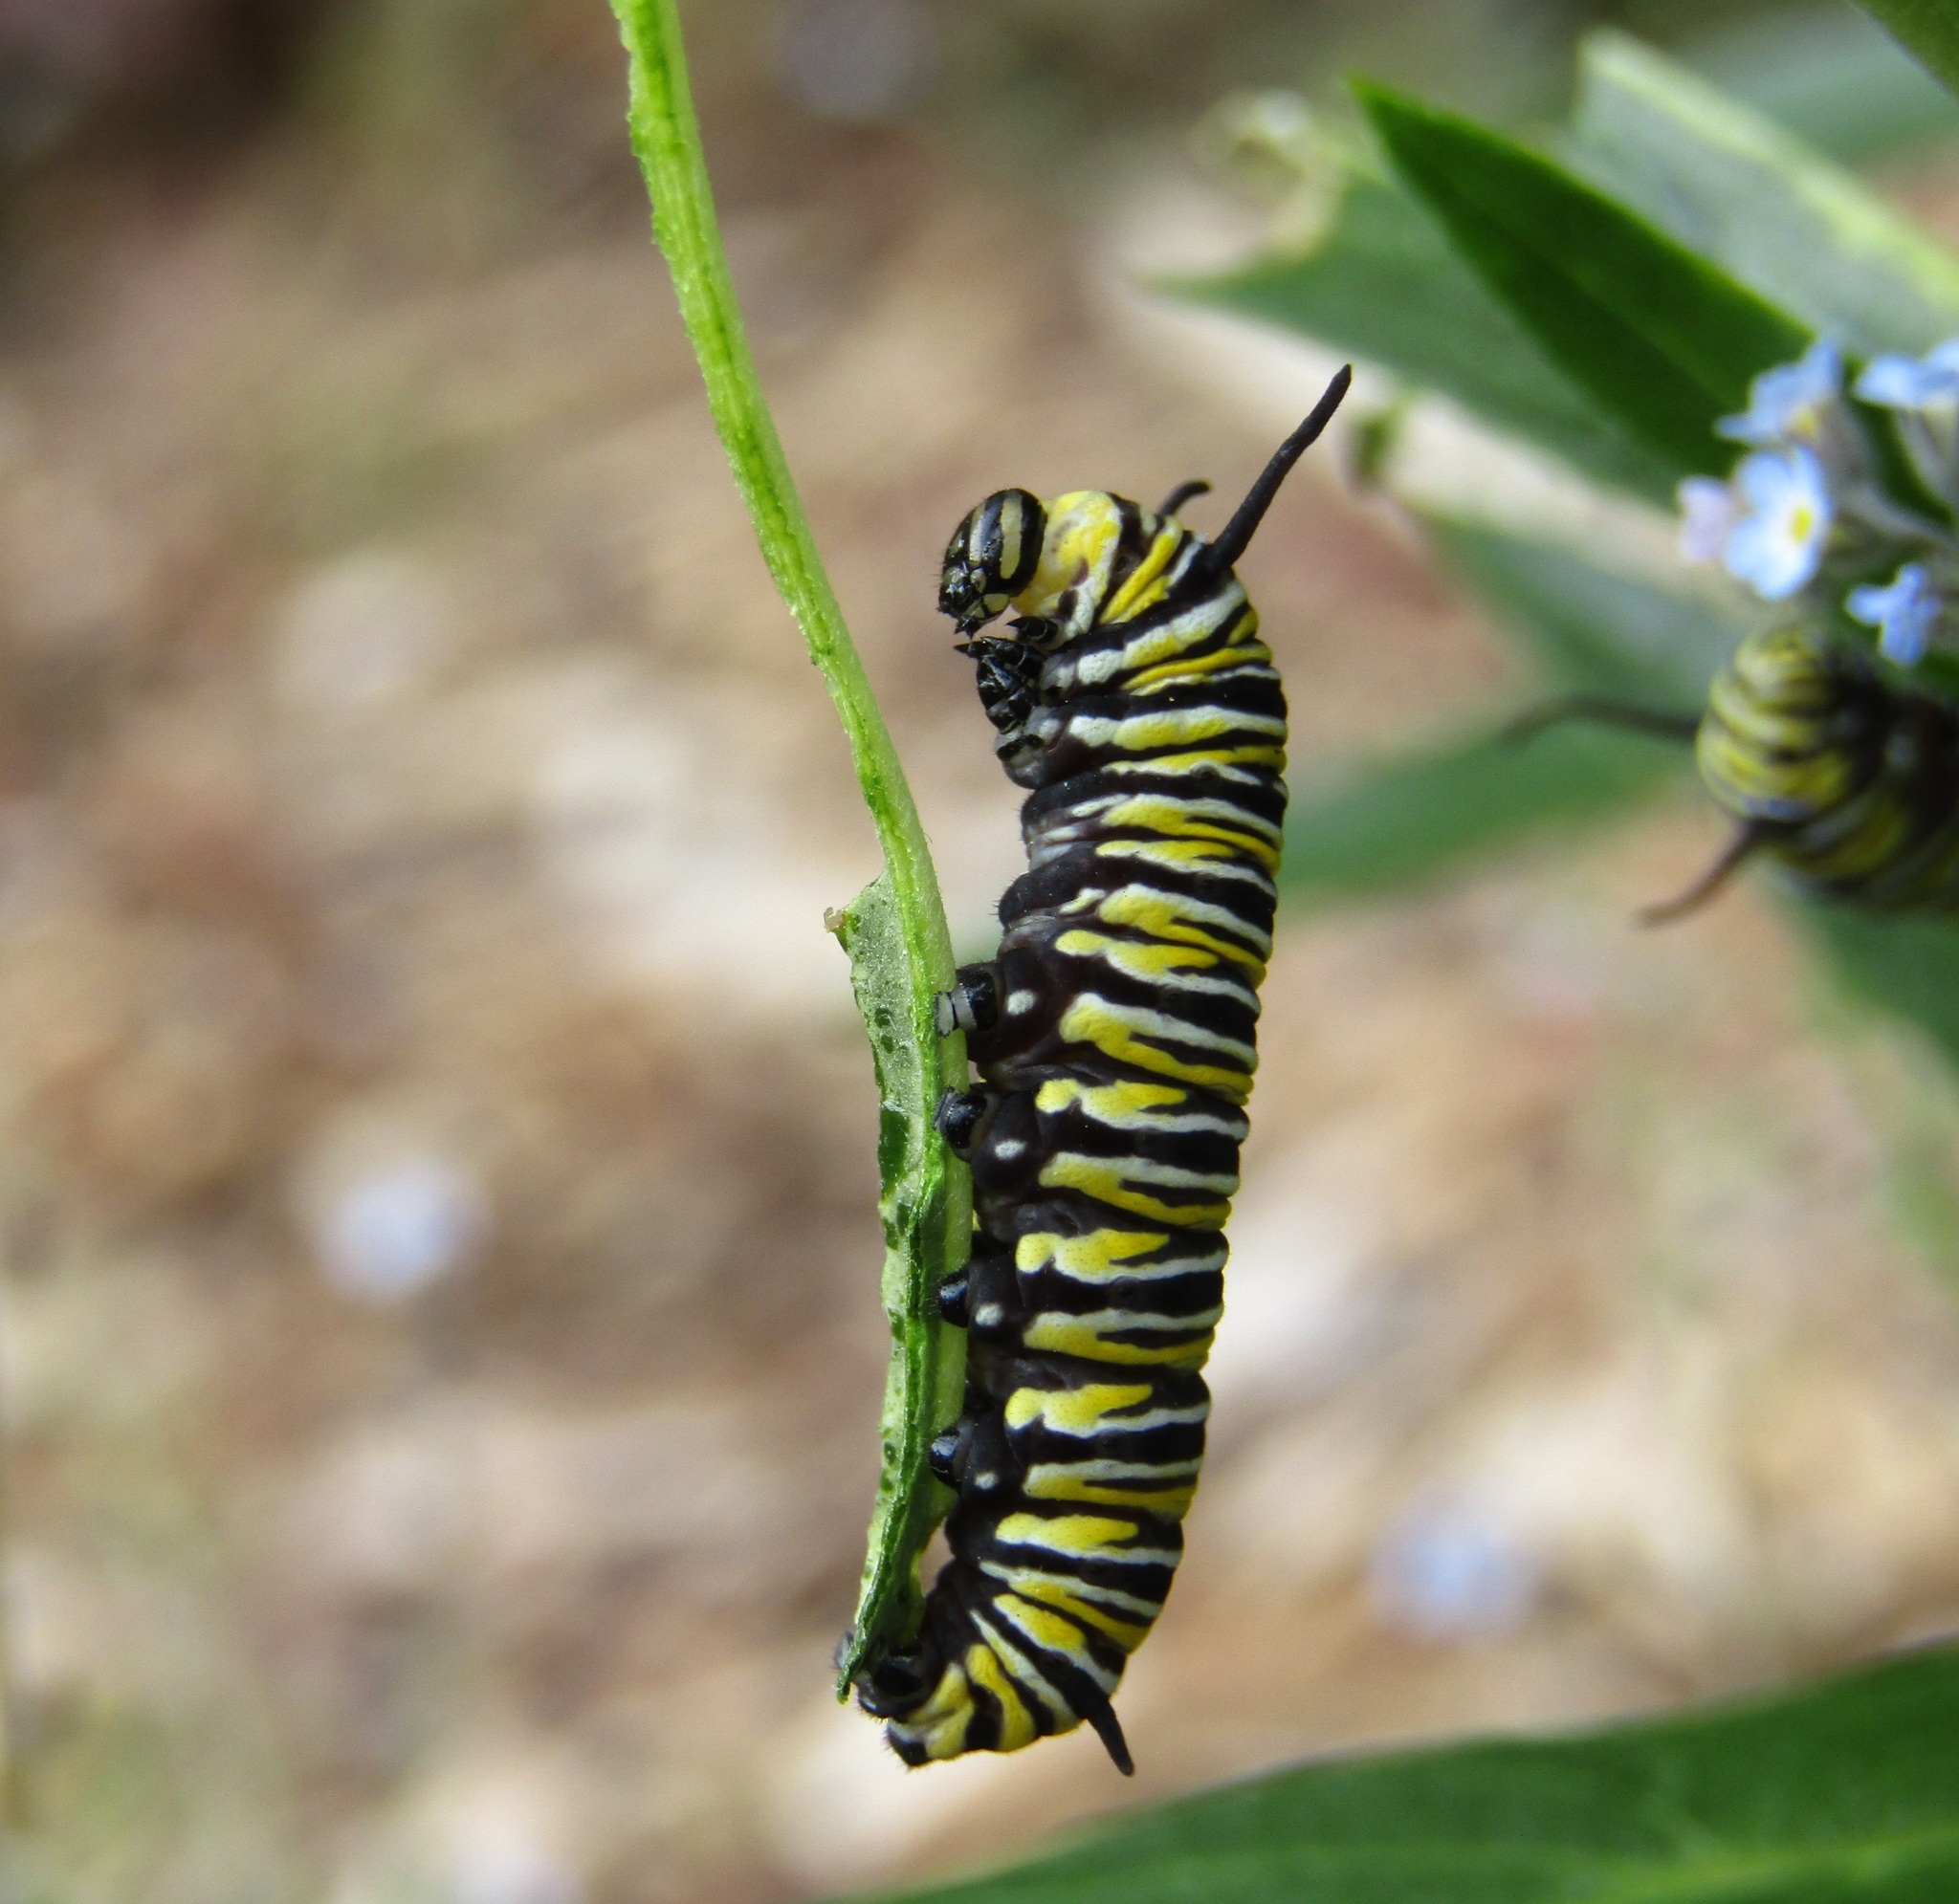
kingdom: Animalia
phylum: Arthropoda
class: Insecta
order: Lepidoptera
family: Nymphalidae
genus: Danaus
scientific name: Danaus plexippus
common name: Monarch
